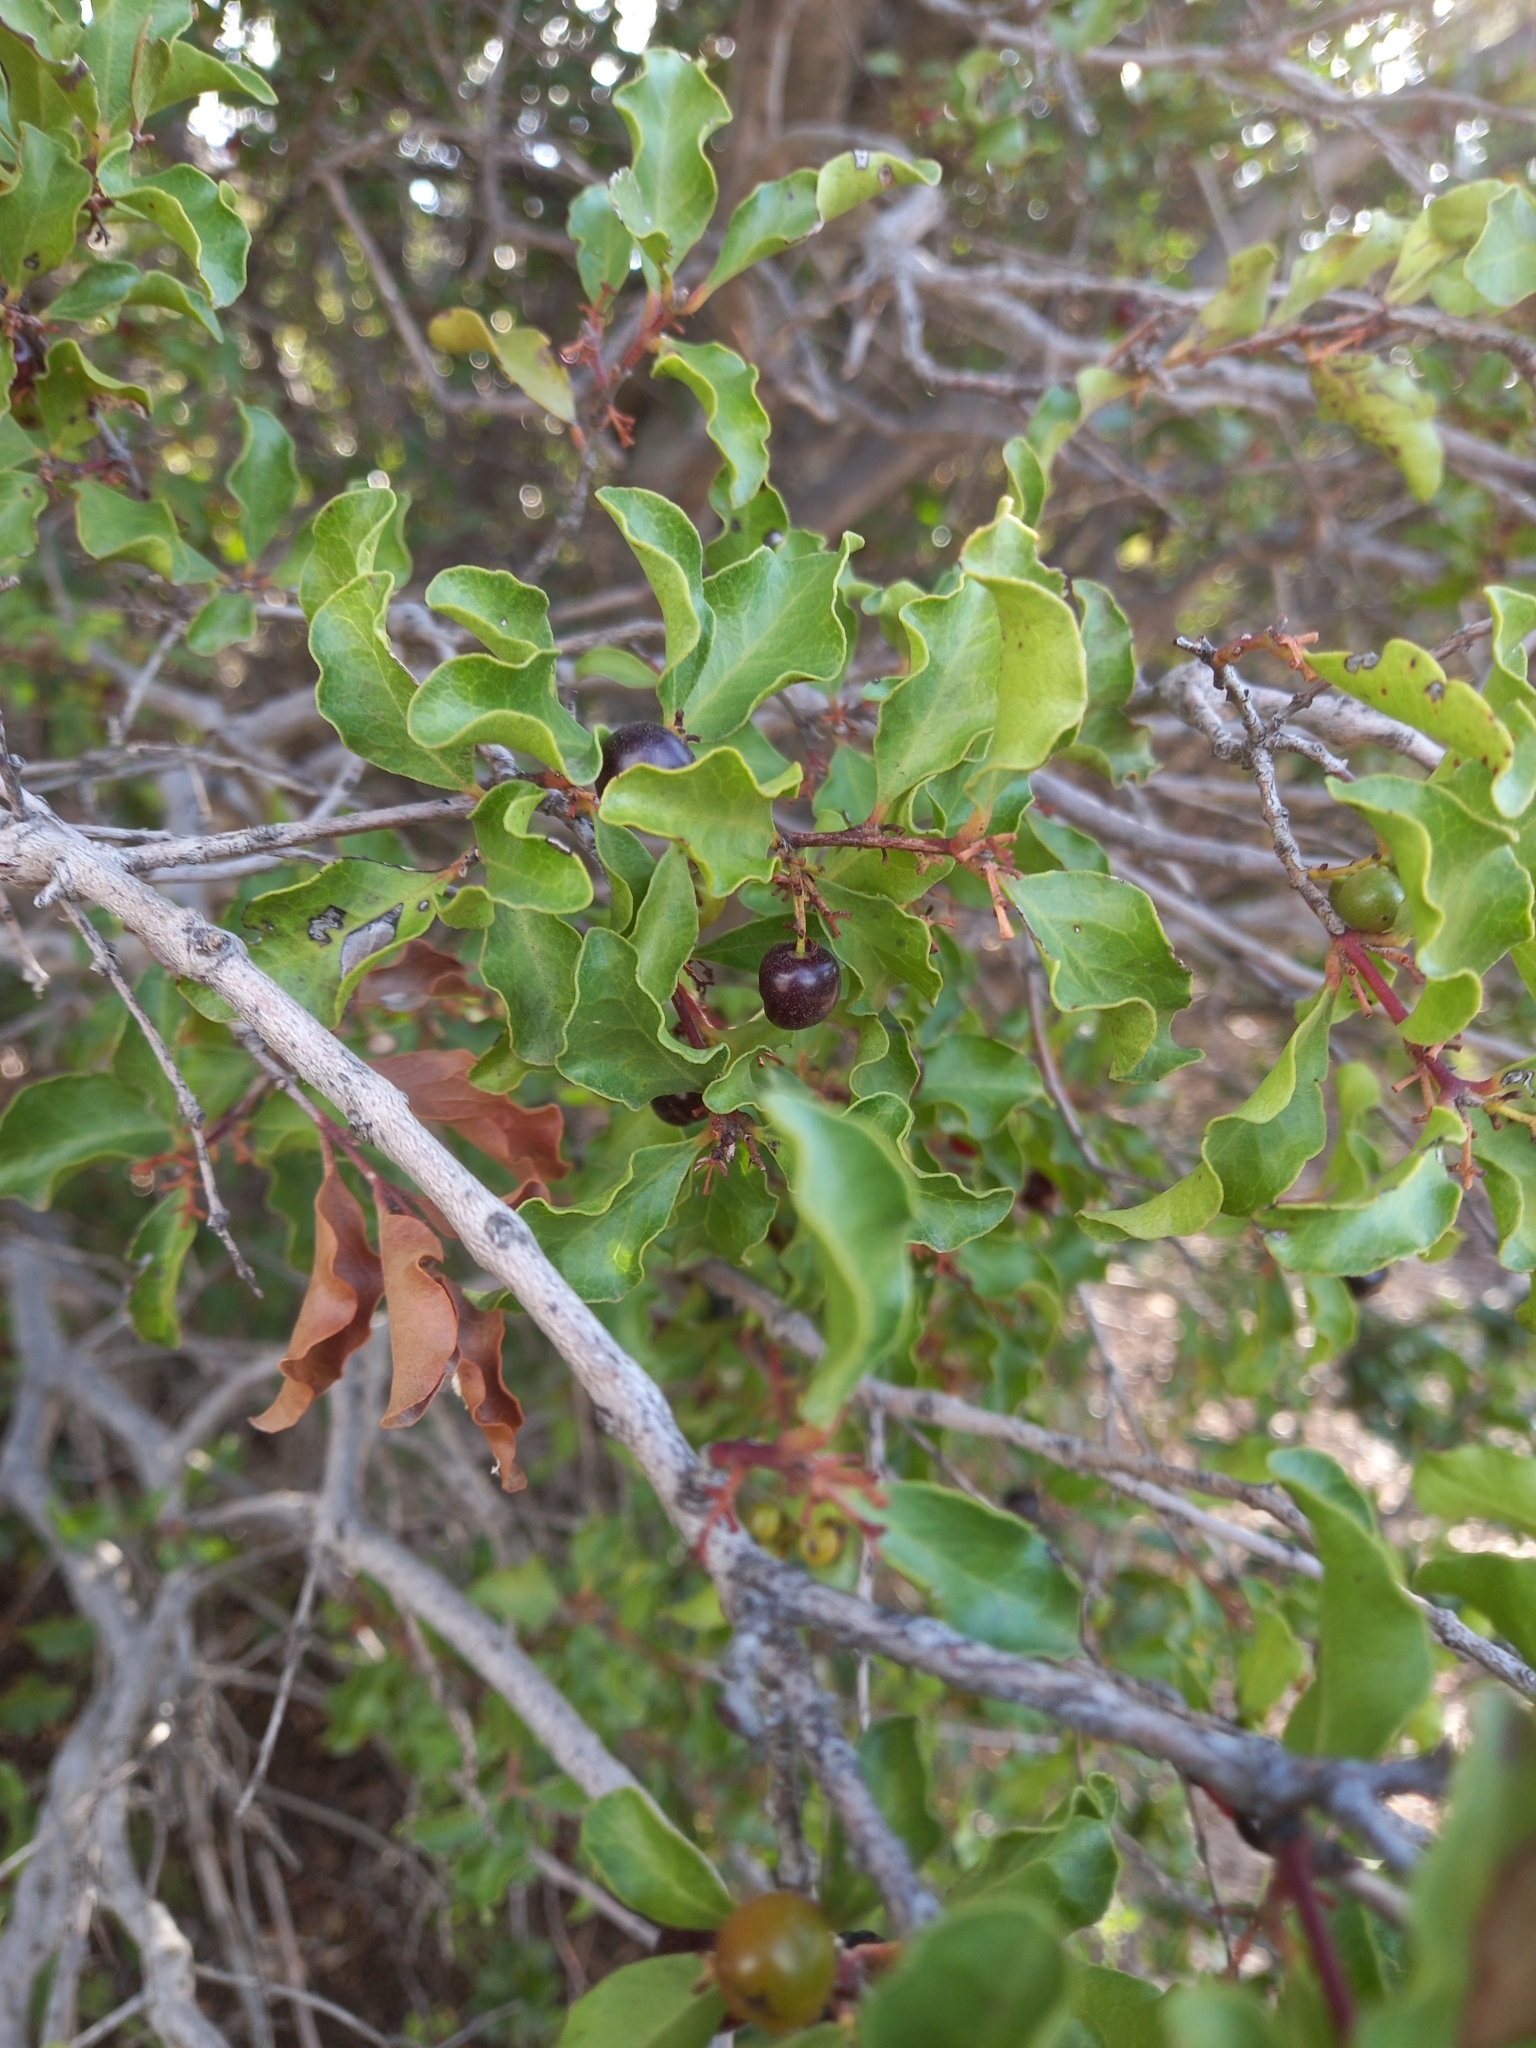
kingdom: Plantae
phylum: Tracheophyta
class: Magnoliopsida
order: Ericales
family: Ebenaceae
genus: Euclea
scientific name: Euclea undulata
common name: Small-leaved guarri
